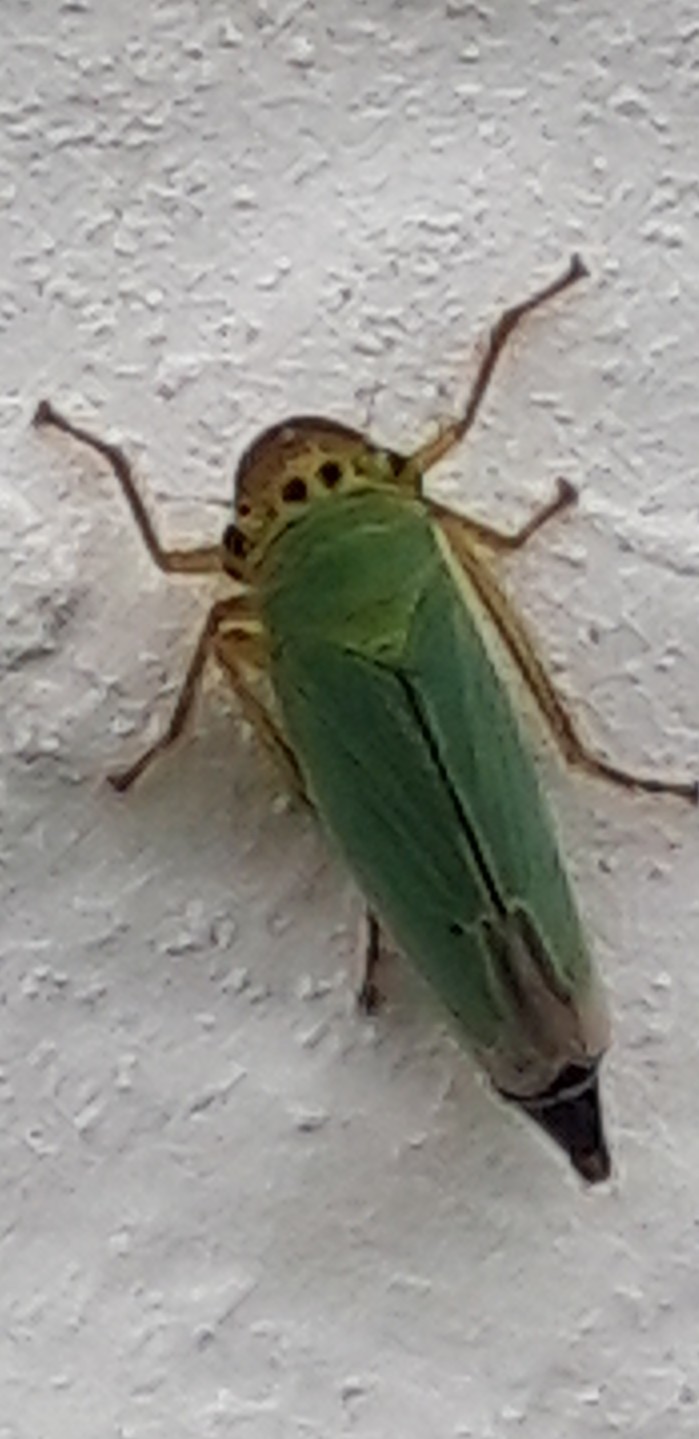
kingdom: Animalia
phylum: Arthropoda
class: Insecta
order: Hemiptera
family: Cicadellidae
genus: Cicadella
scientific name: Cicadella viridis
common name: Leafhopper
